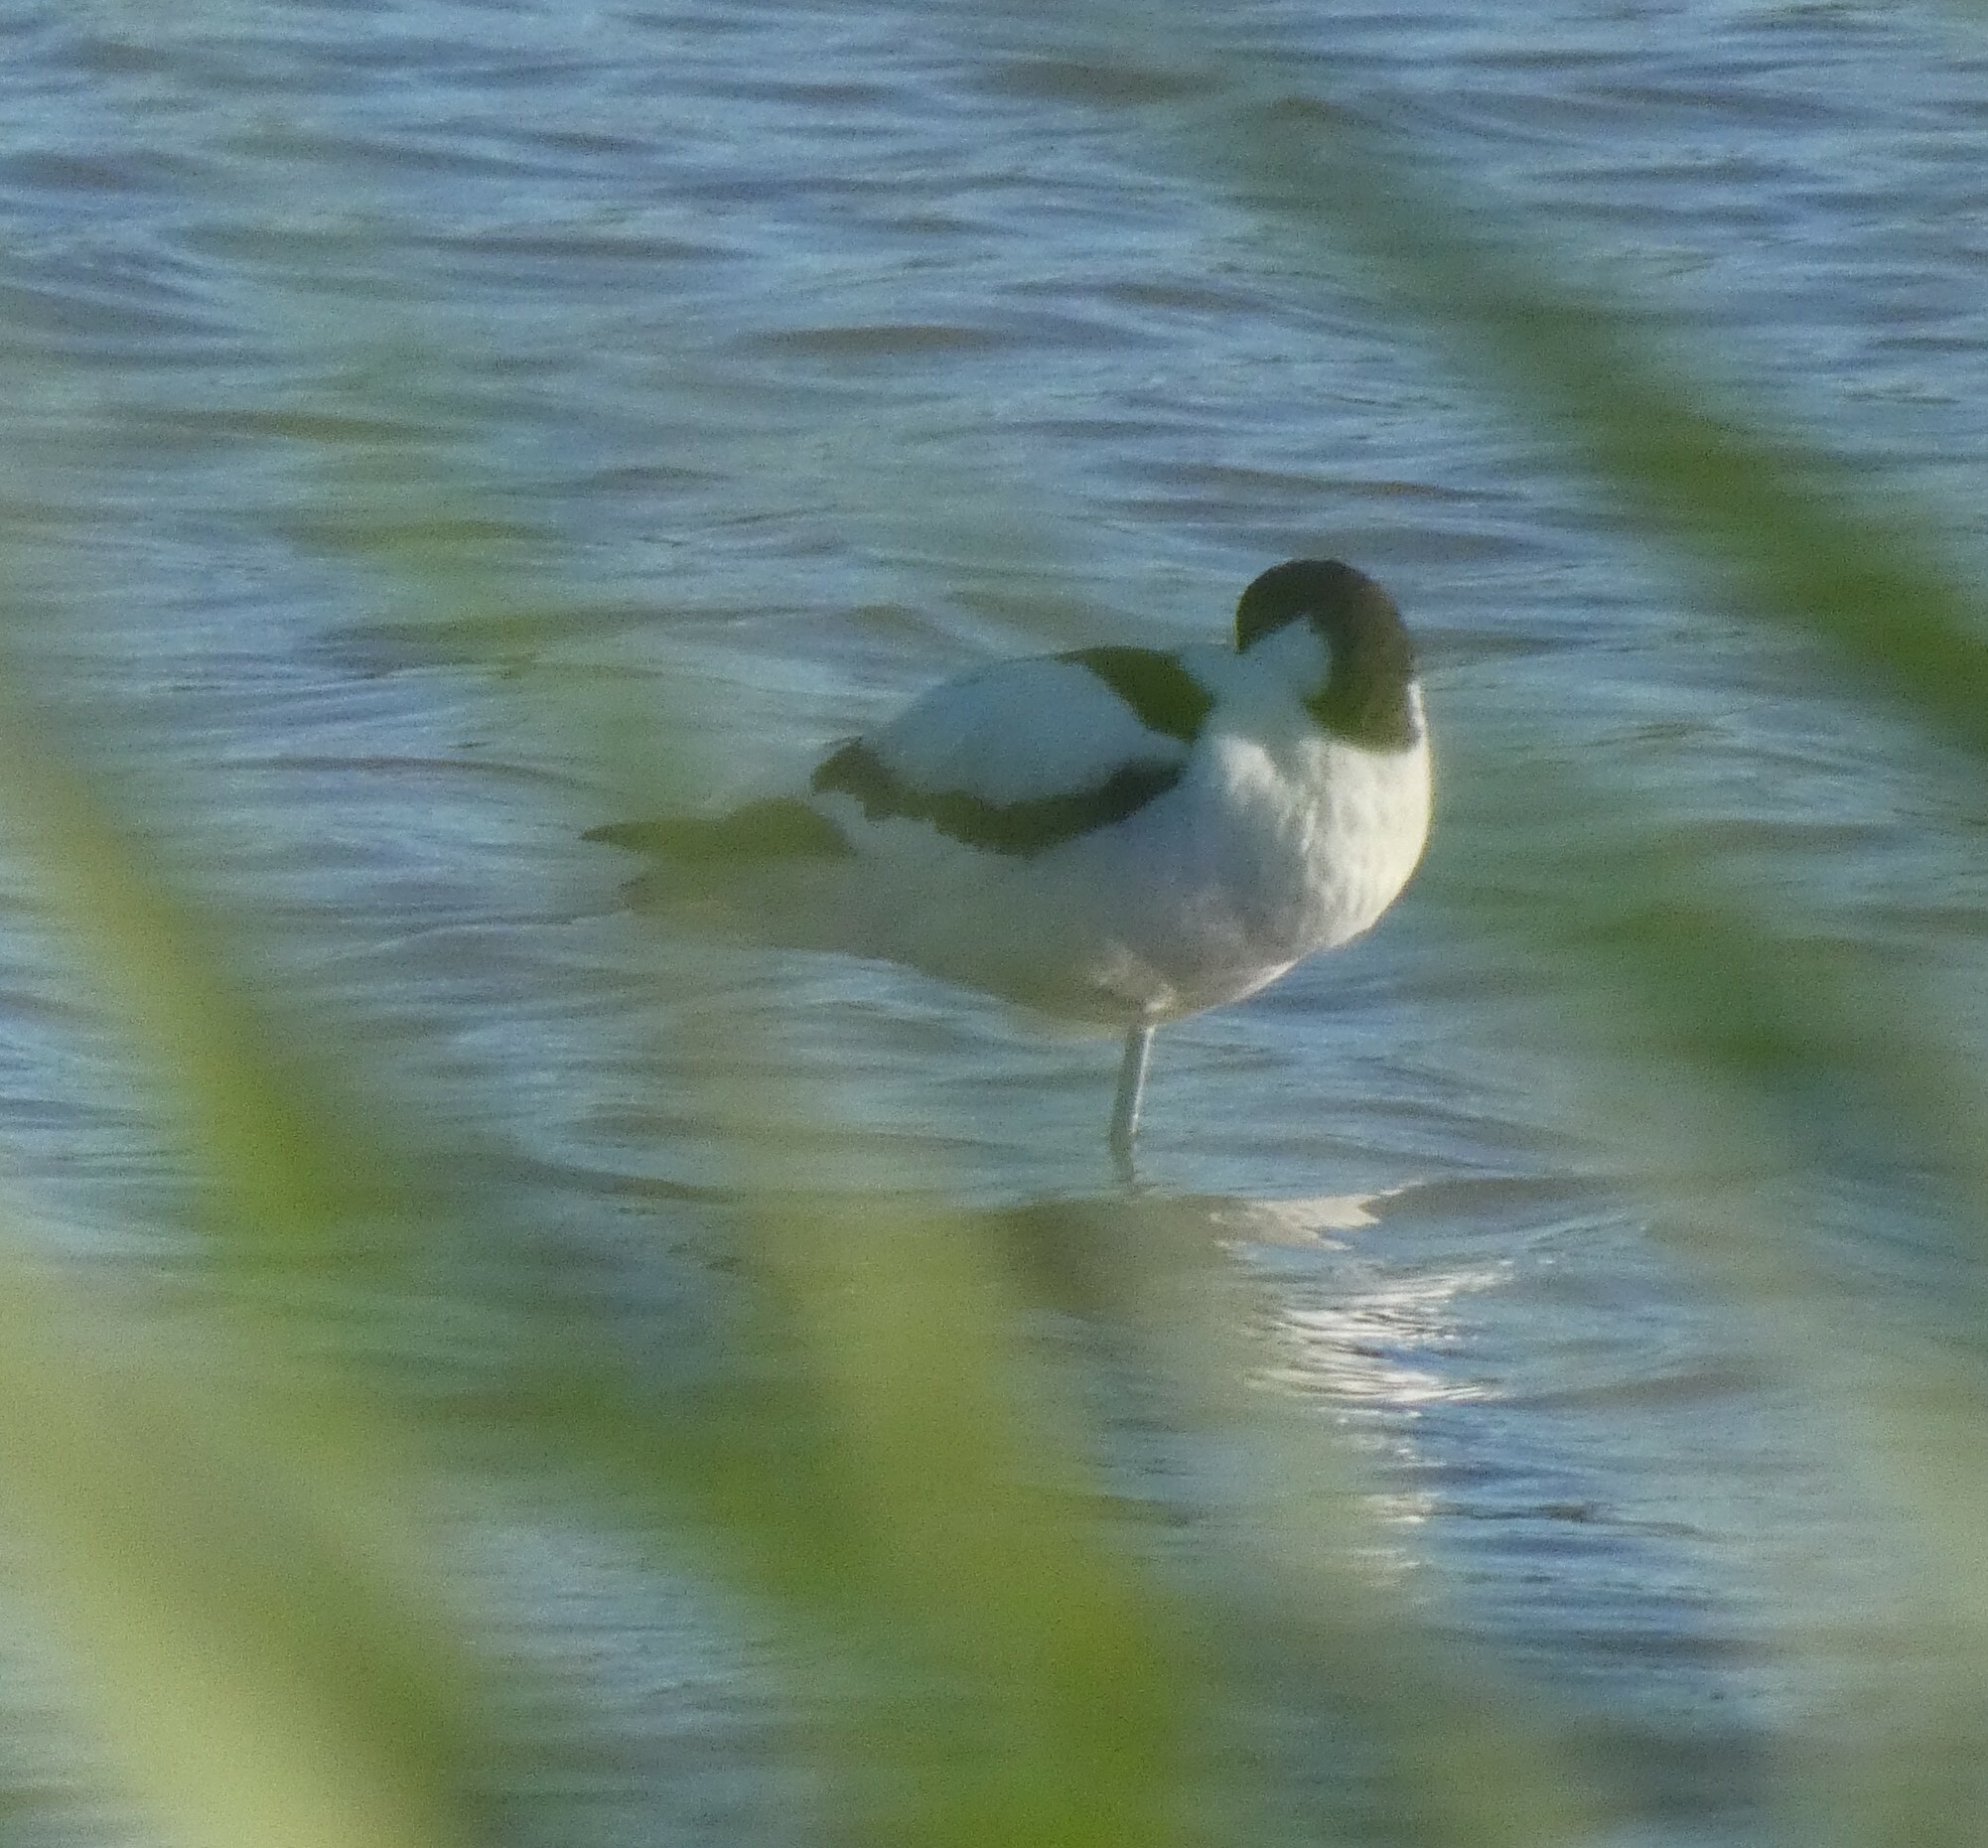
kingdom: Animalia
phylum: Chordata
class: Aves
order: Charadriiformes
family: Recurvirostridae
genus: Recurvirostra
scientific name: Recurvirostra avosetta
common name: Pied avocet
